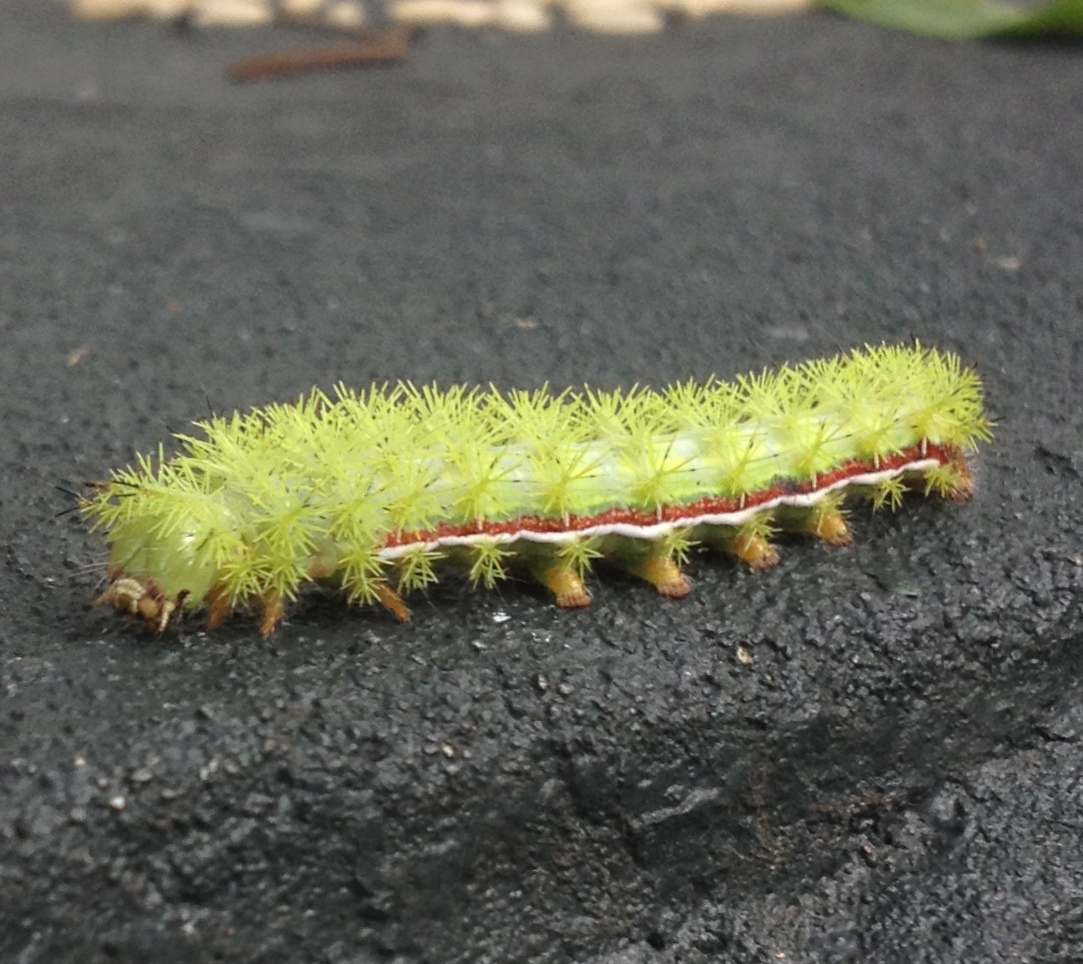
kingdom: Animalia
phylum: Arthropoda
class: Insecta
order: Lepidoptera
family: Saturniidae
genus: Automeris
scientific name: Automeris io
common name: Io moth
